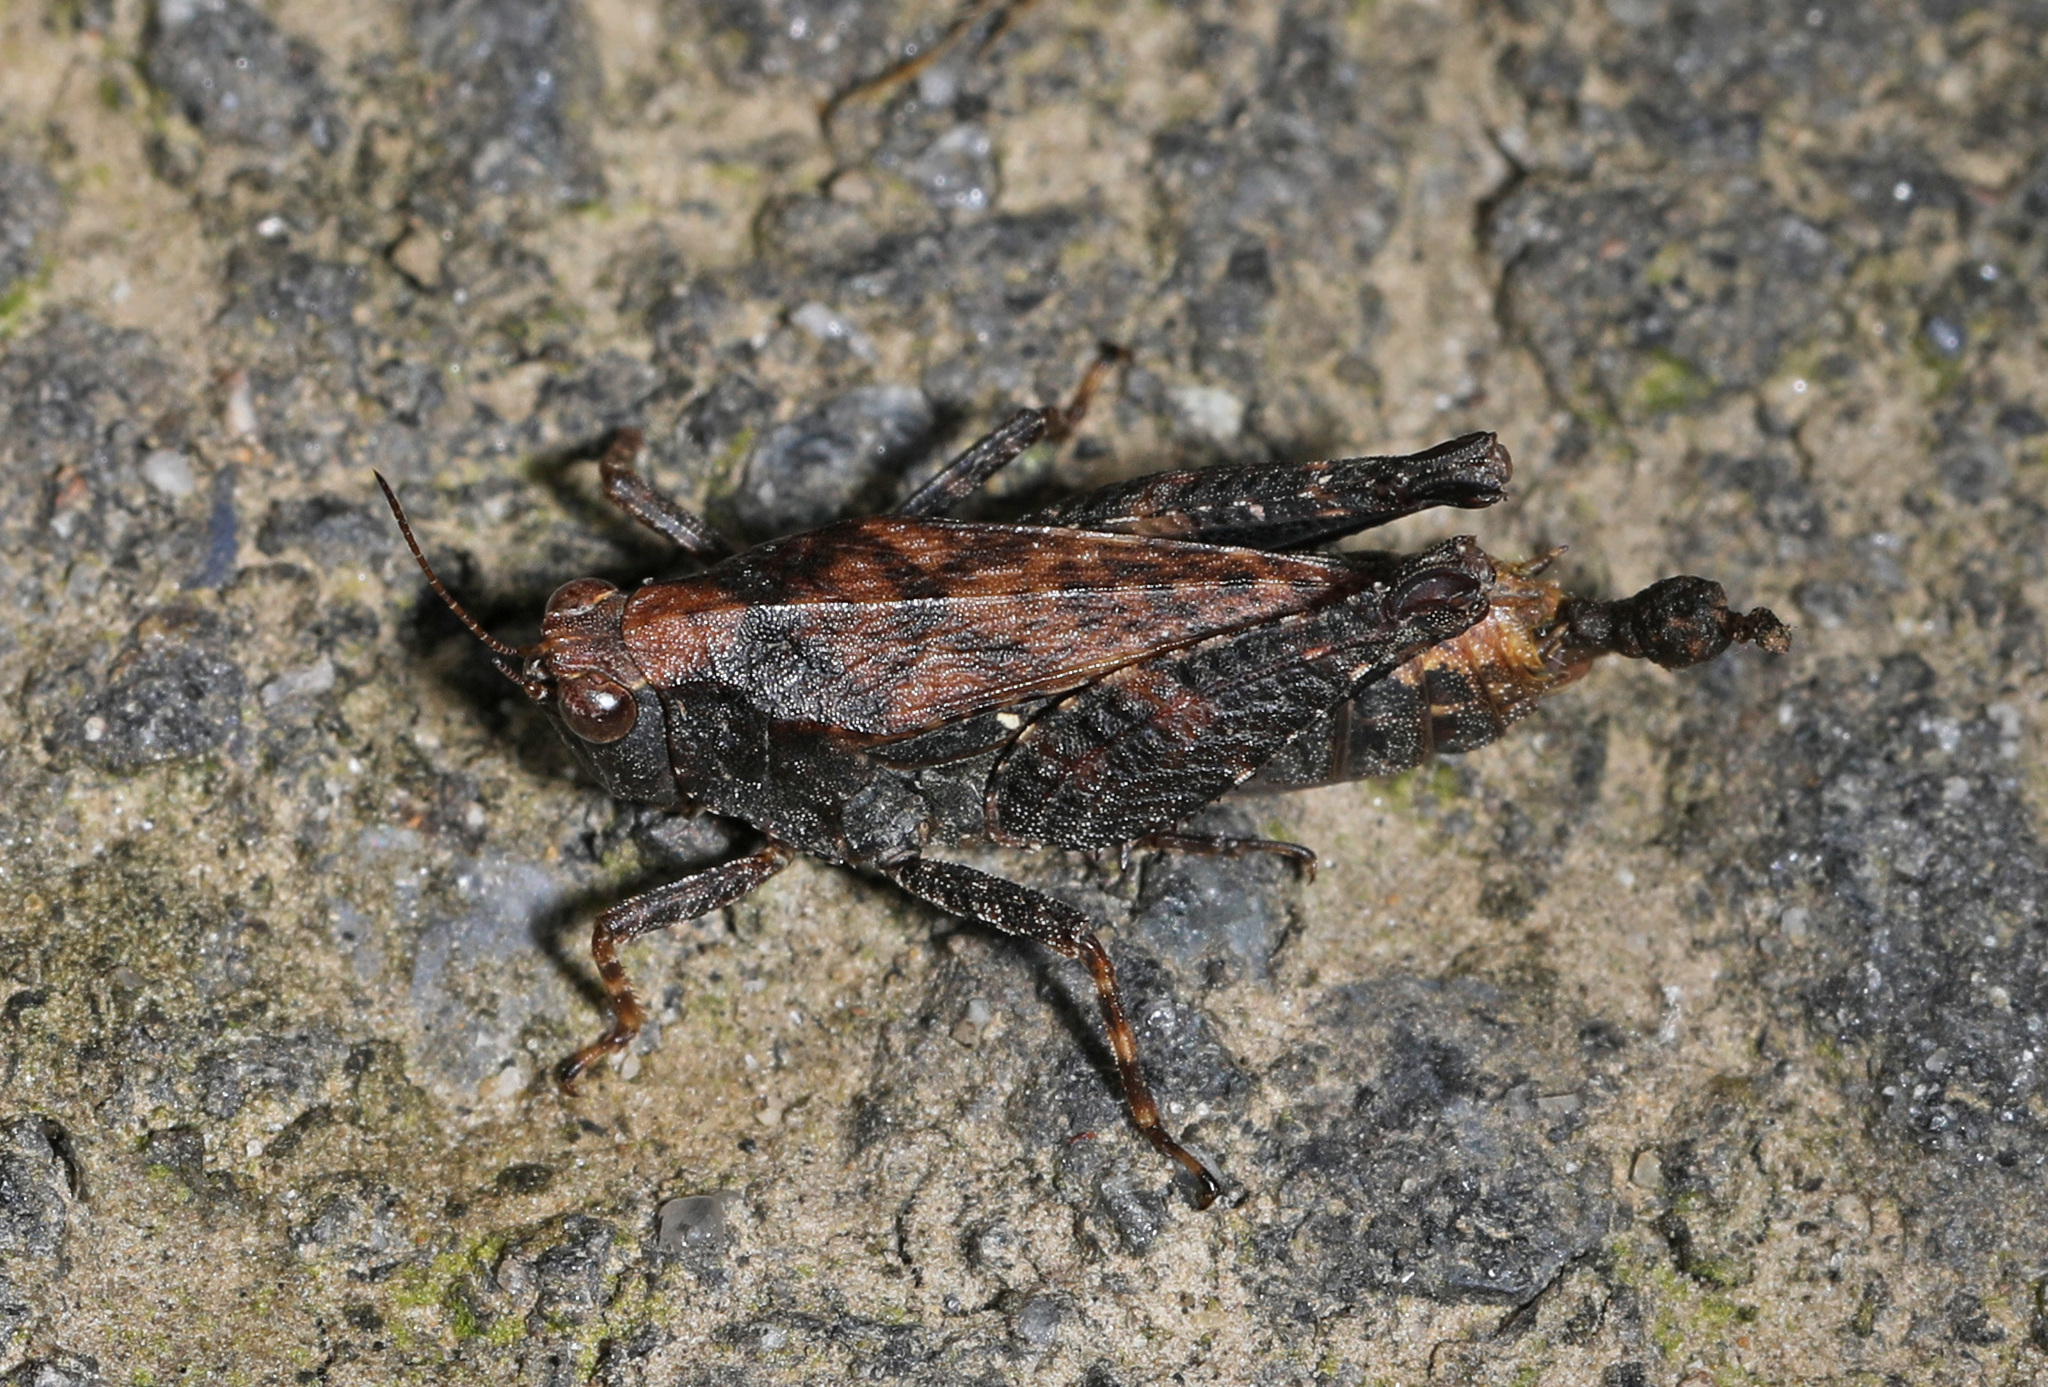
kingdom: Animalia
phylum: Arthropoda
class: Insecta
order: Orthoptera
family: Tetrigidae
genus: Tettigidea
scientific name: Tettigidea laterale
